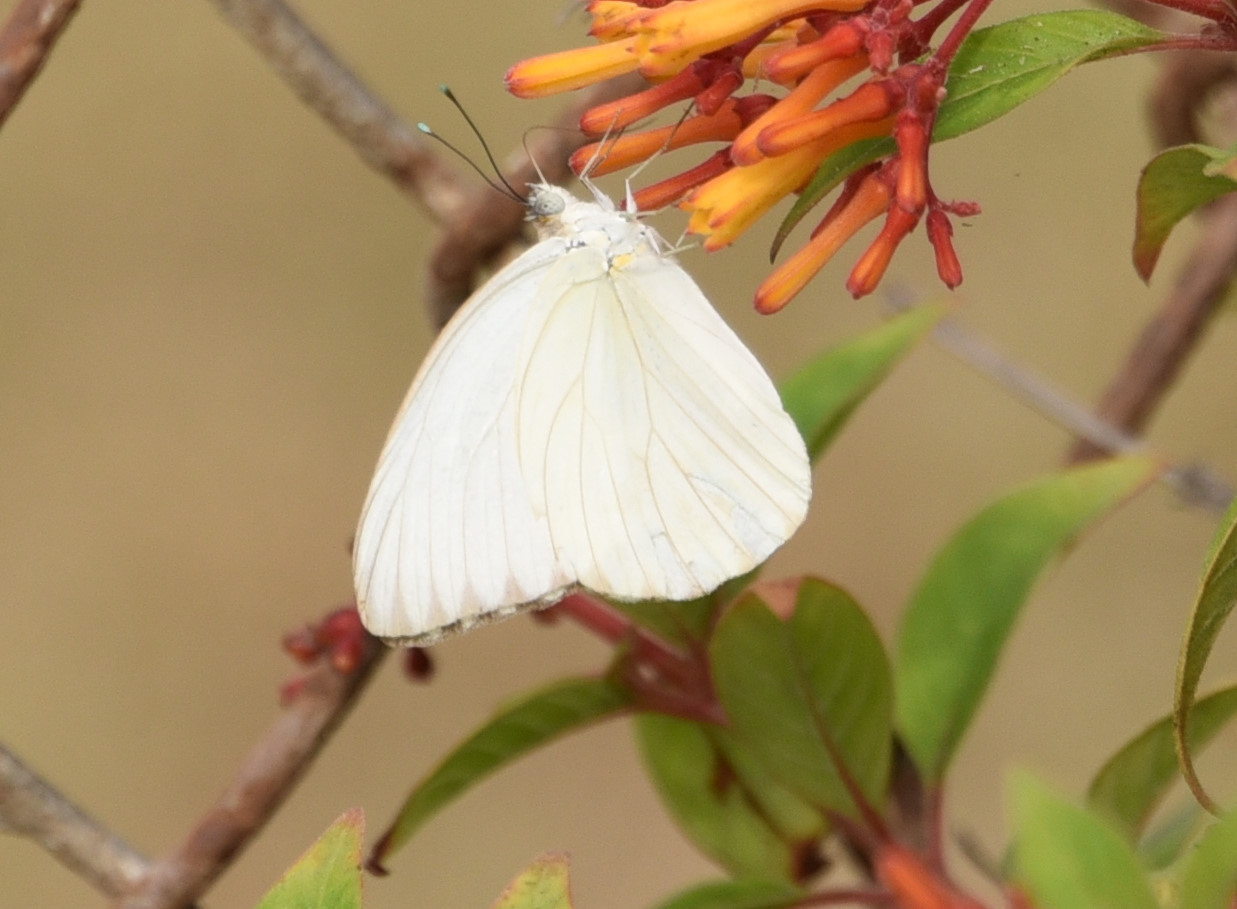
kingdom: Animalia
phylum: Arthropoda
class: Insecta
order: Lepidoptera
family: Pieridae
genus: Ascia
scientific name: Ascia monuste
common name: Great southern white
